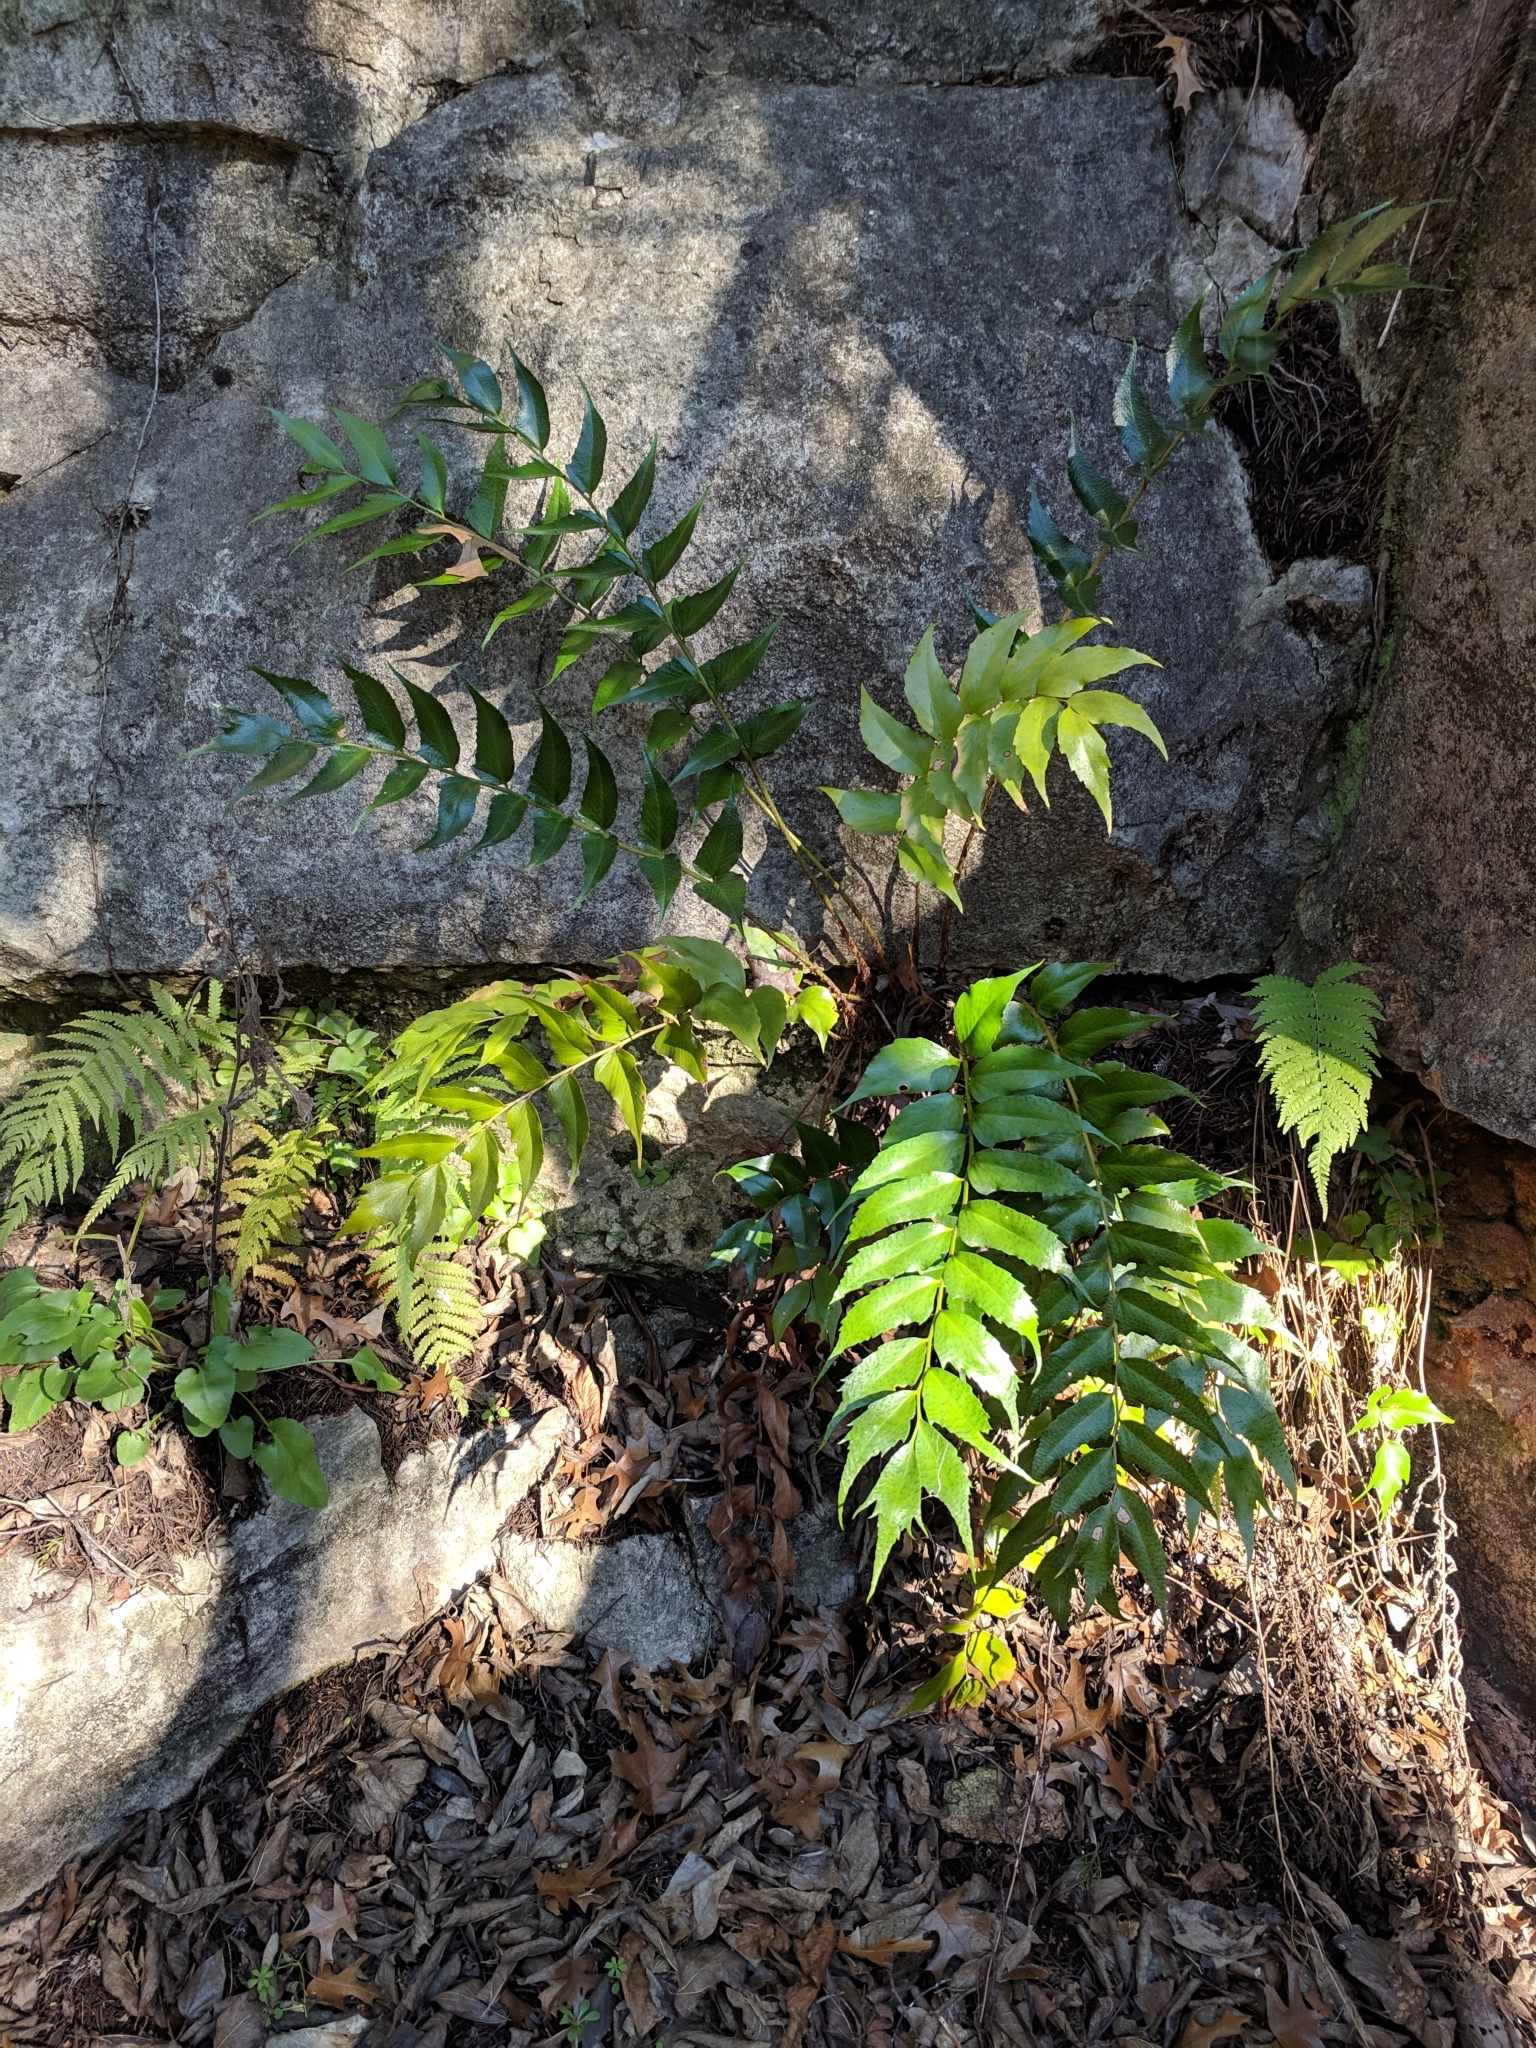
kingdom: Plantae
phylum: Tracheophyta
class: Polypodiopsida
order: Polypodiales
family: Dryopteridaceae
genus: Cyrtomium
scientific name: Cyrtomium falcatum
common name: House holly-fern
